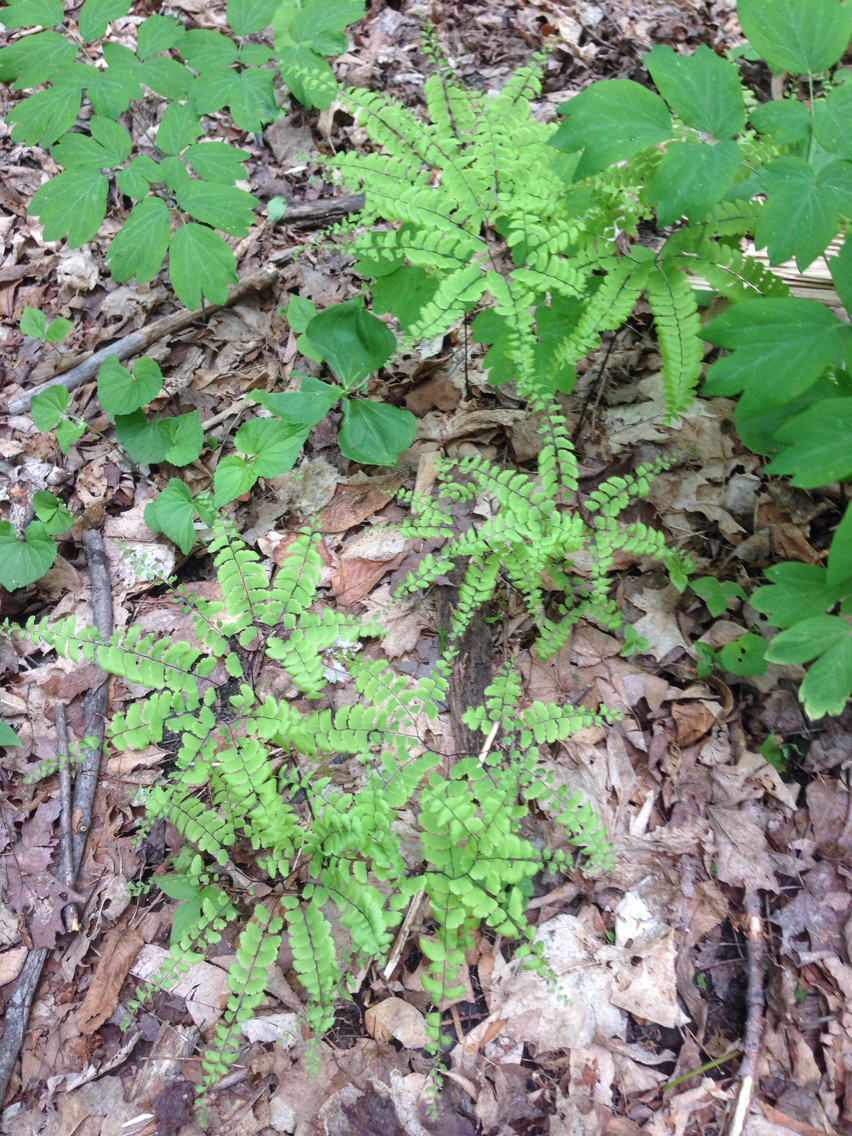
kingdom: Plantae
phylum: Tracheophyta
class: Polypodiopsida
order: Polypodiales
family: Pteridaceae
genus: Adiantum
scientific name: Adiantum pedatum
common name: Five-finger fern
